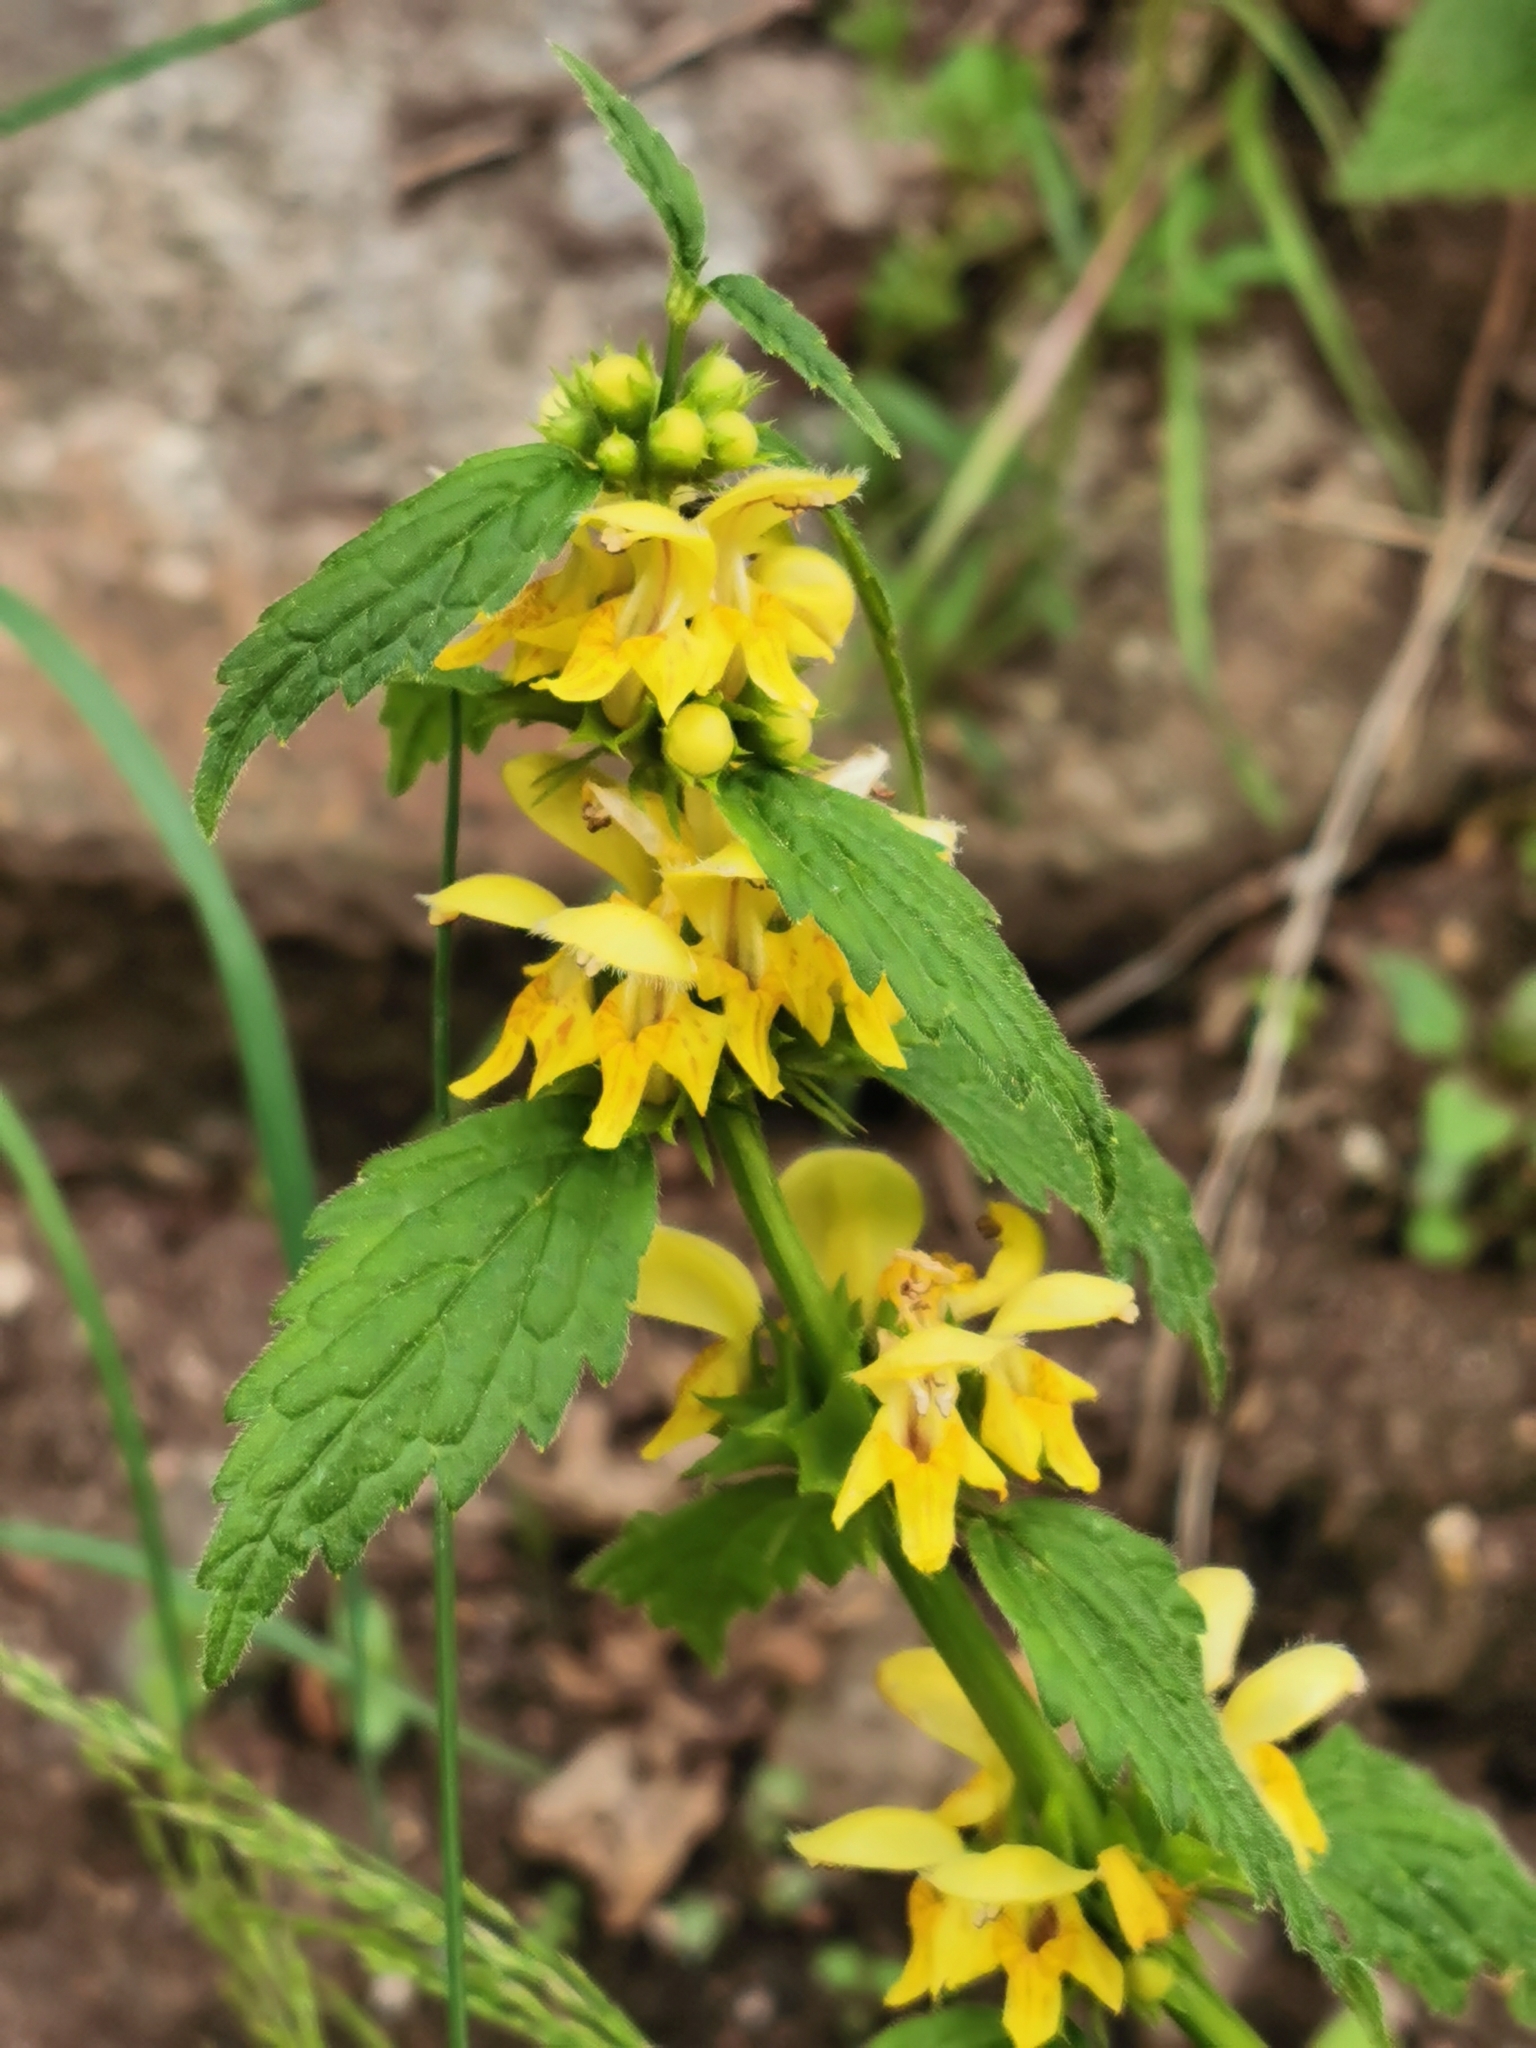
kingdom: Plantae
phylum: Tracheophyta
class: Magnoliopsida
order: Lamiales
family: Lamiaceae
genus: Lamium
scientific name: Lamium galeobdolon
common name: Yellow archangel
